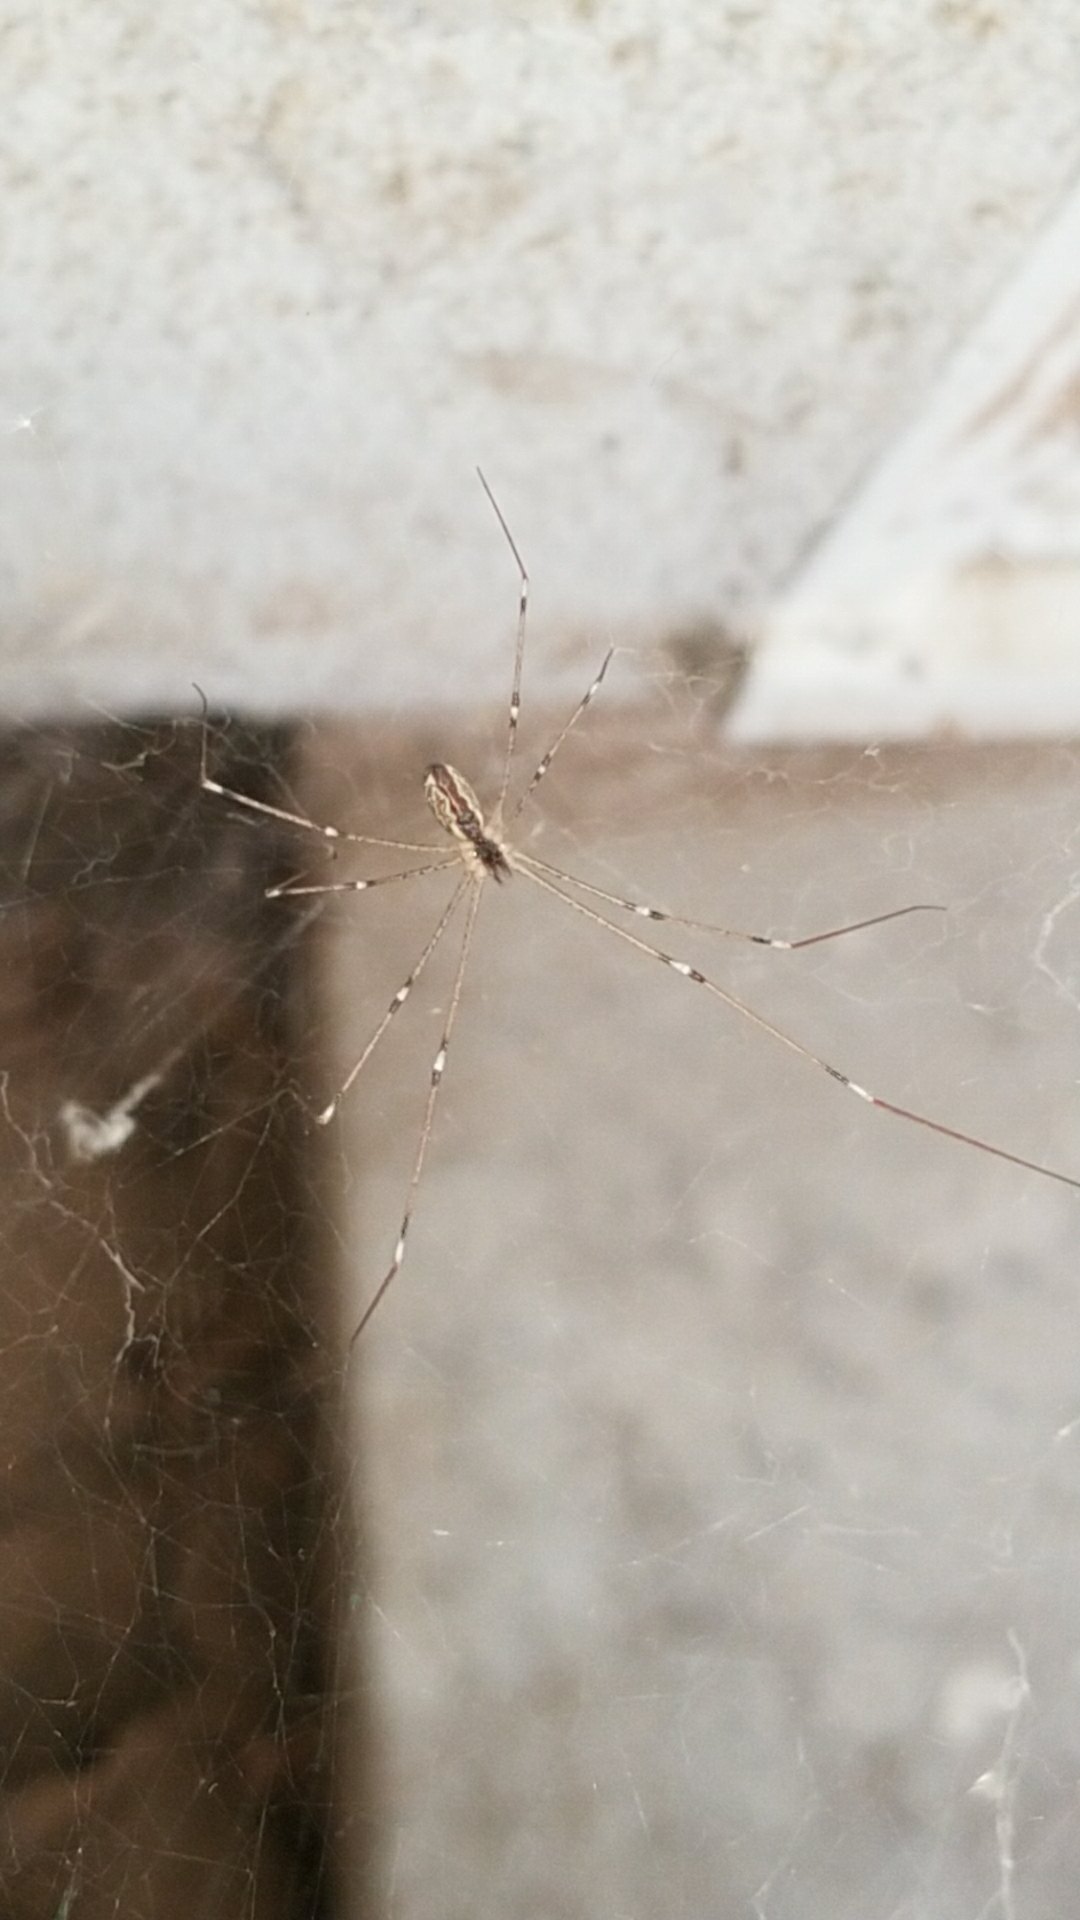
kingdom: Animalia
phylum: Arthropoda
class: Arachnida
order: Araneae
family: Pholcidae
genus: Holocnemus
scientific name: Holocnemus pluchei
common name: Marbled cellar spider
